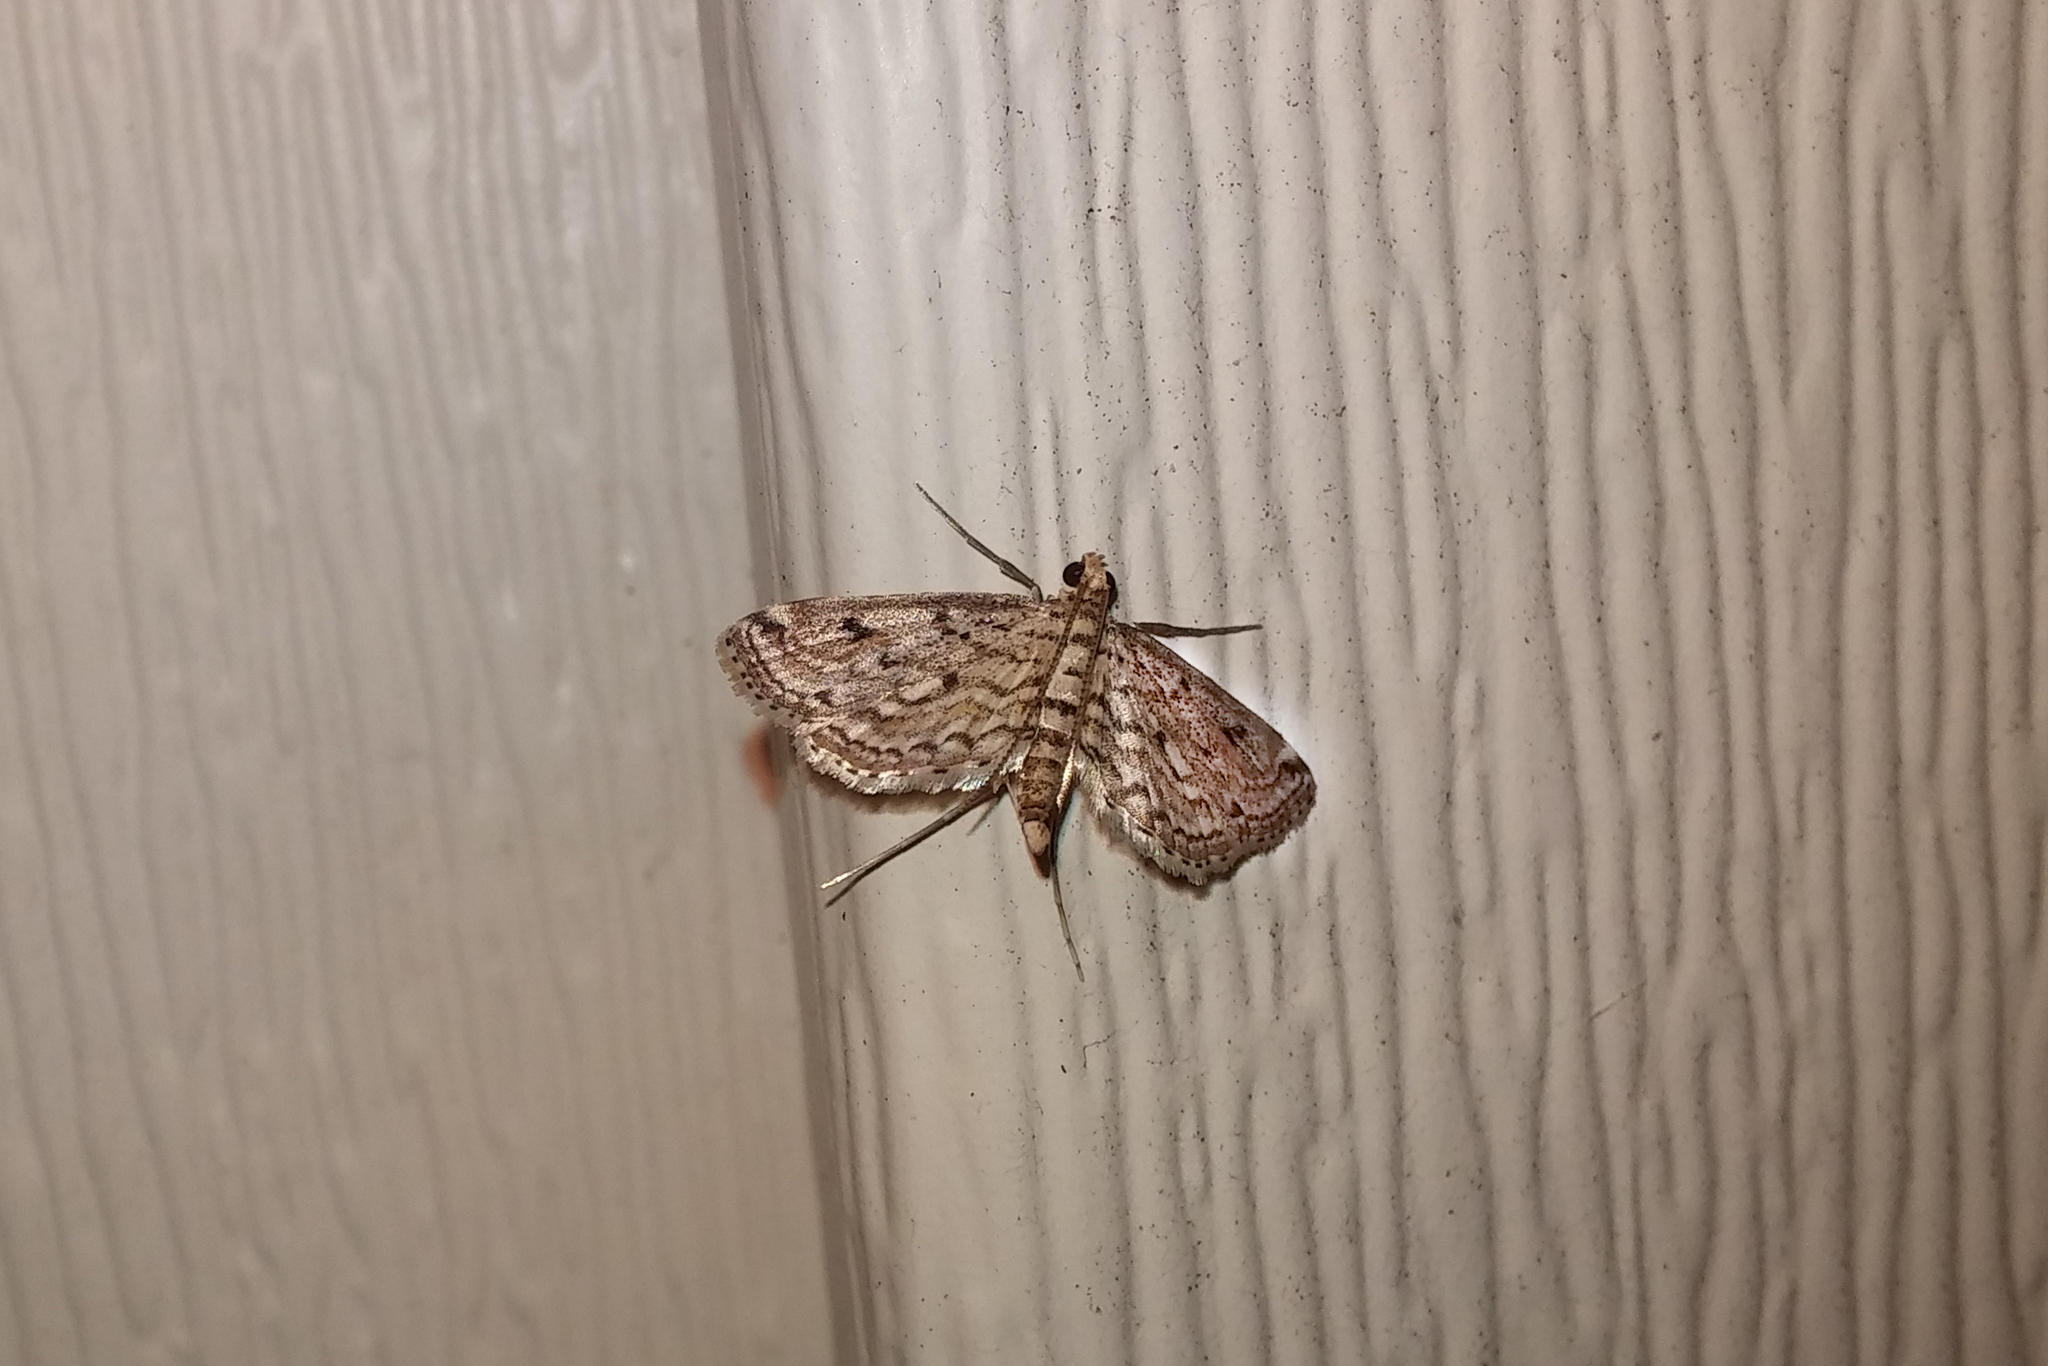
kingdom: Animalia
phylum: Arthropoda
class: Insecta
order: Lepidoptera
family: Crambidae
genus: Parapoynx
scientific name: Parapoynx allionealis
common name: Bladderwort casemaker
